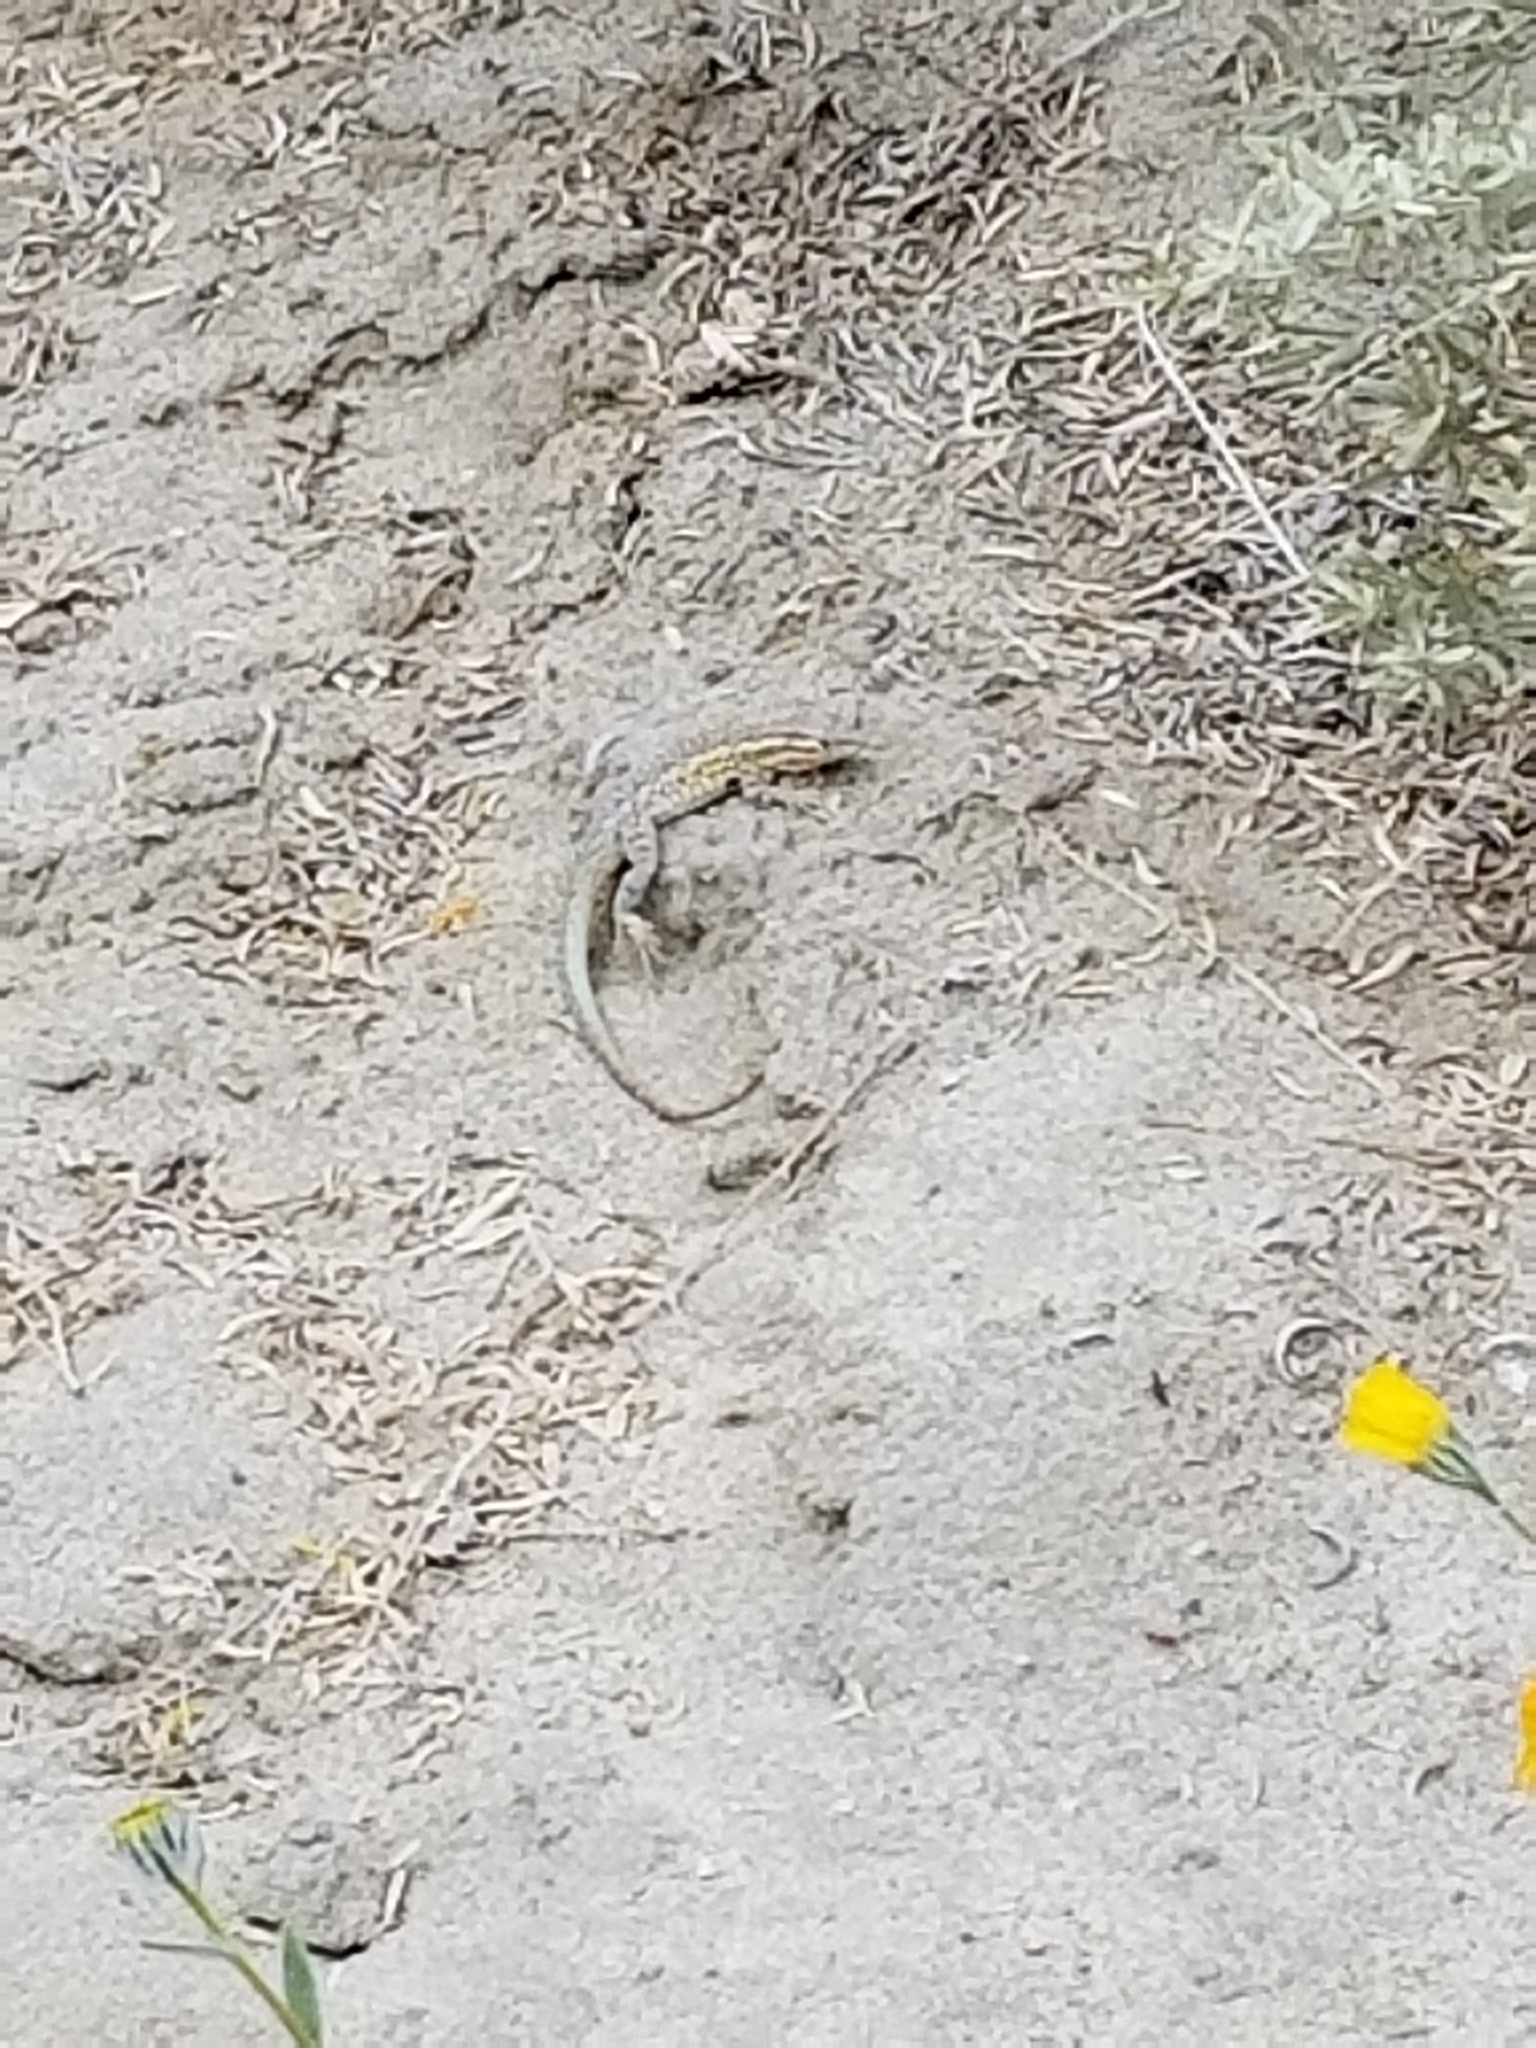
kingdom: Animalia
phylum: Chordata
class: Squamata
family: Phrynosomatidae
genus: Uta
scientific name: Uta stansburiana
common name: Side-blotched lizard
